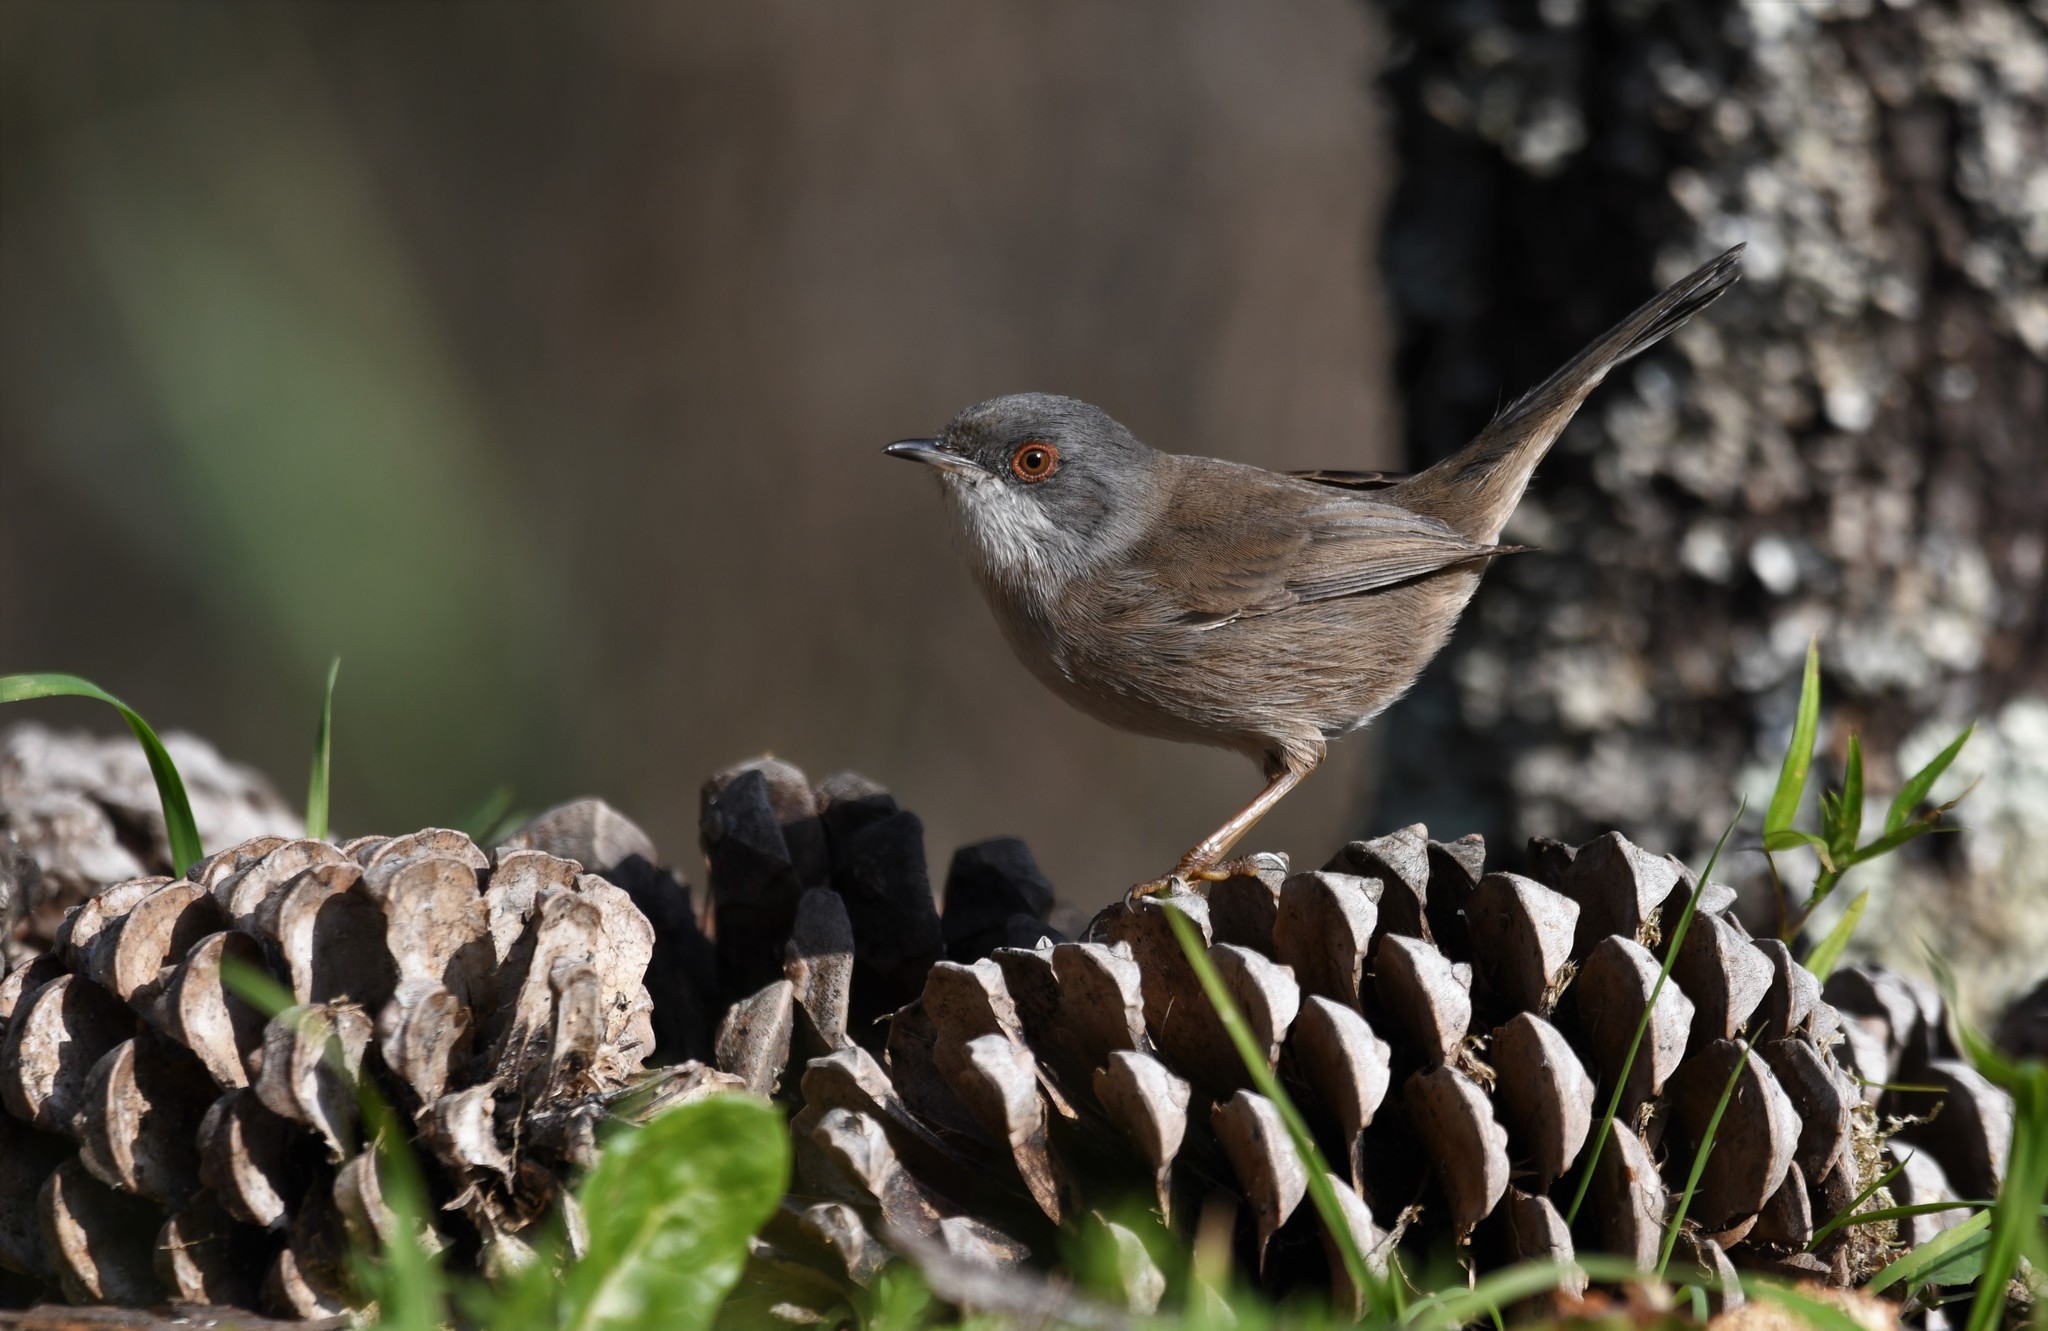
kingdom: Animalia
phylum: Chordata
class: Aves
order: Passeriformes
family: Sylviidae
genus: Curruca
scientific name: Curruca melanocephala
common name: Sardinian warbler
